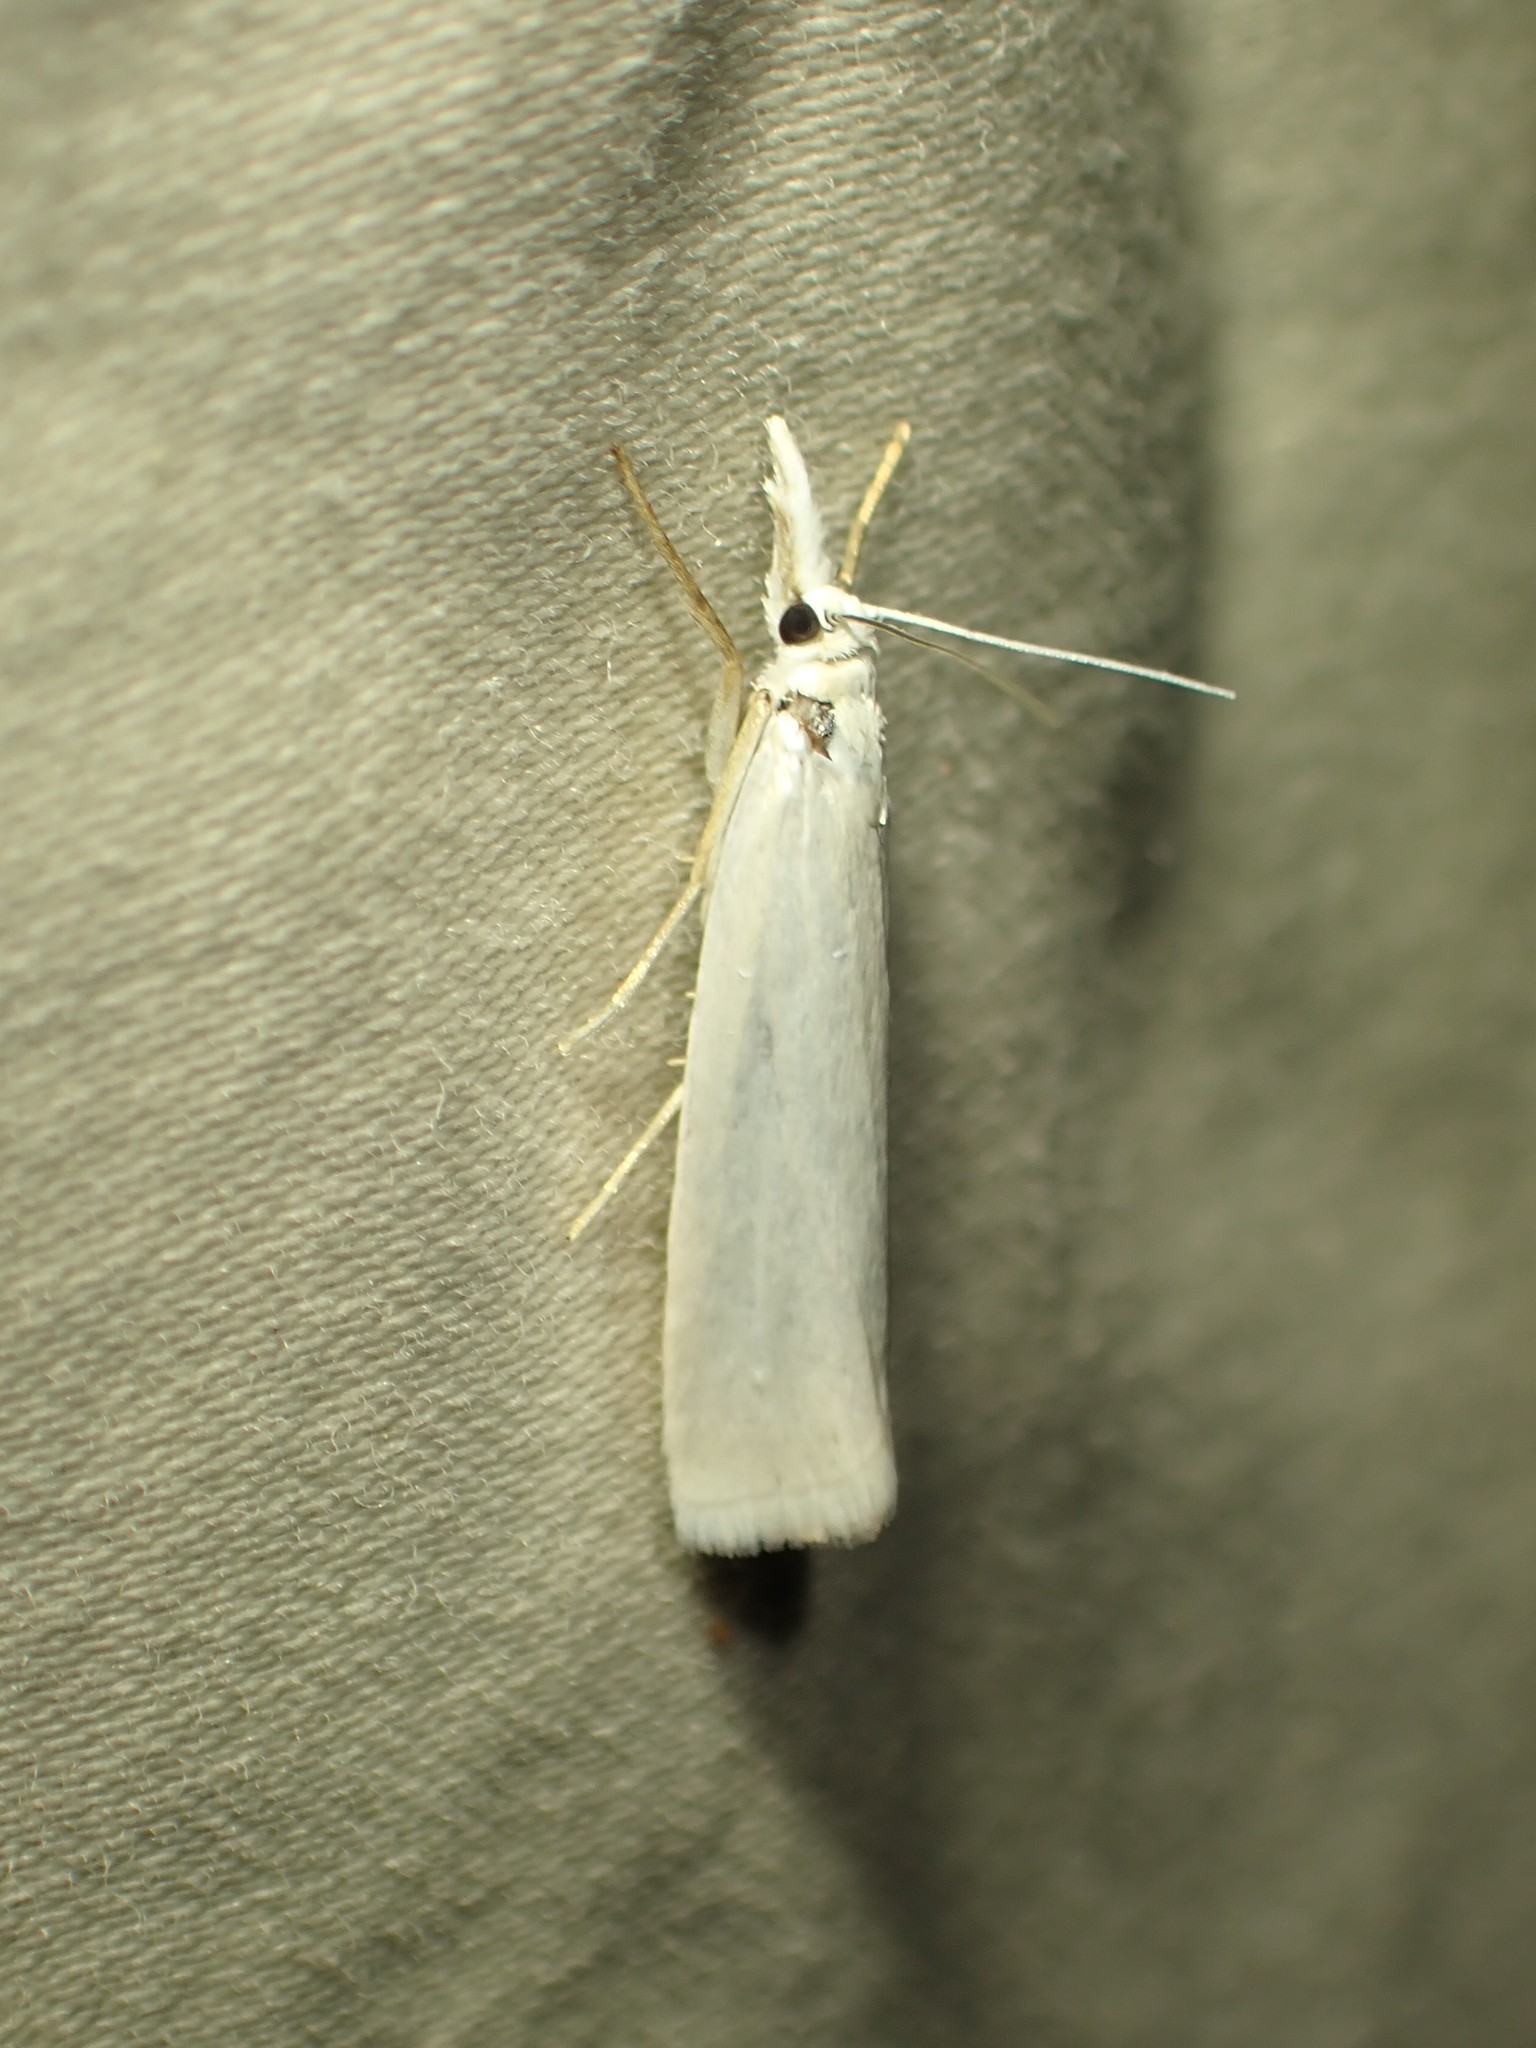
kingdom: Animalia
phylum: Arthropoda
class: Insecta
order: Lepidoptera
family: Crambidae
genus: Crambus
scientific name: Crambus perlellus
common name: Yellow satin veneer
